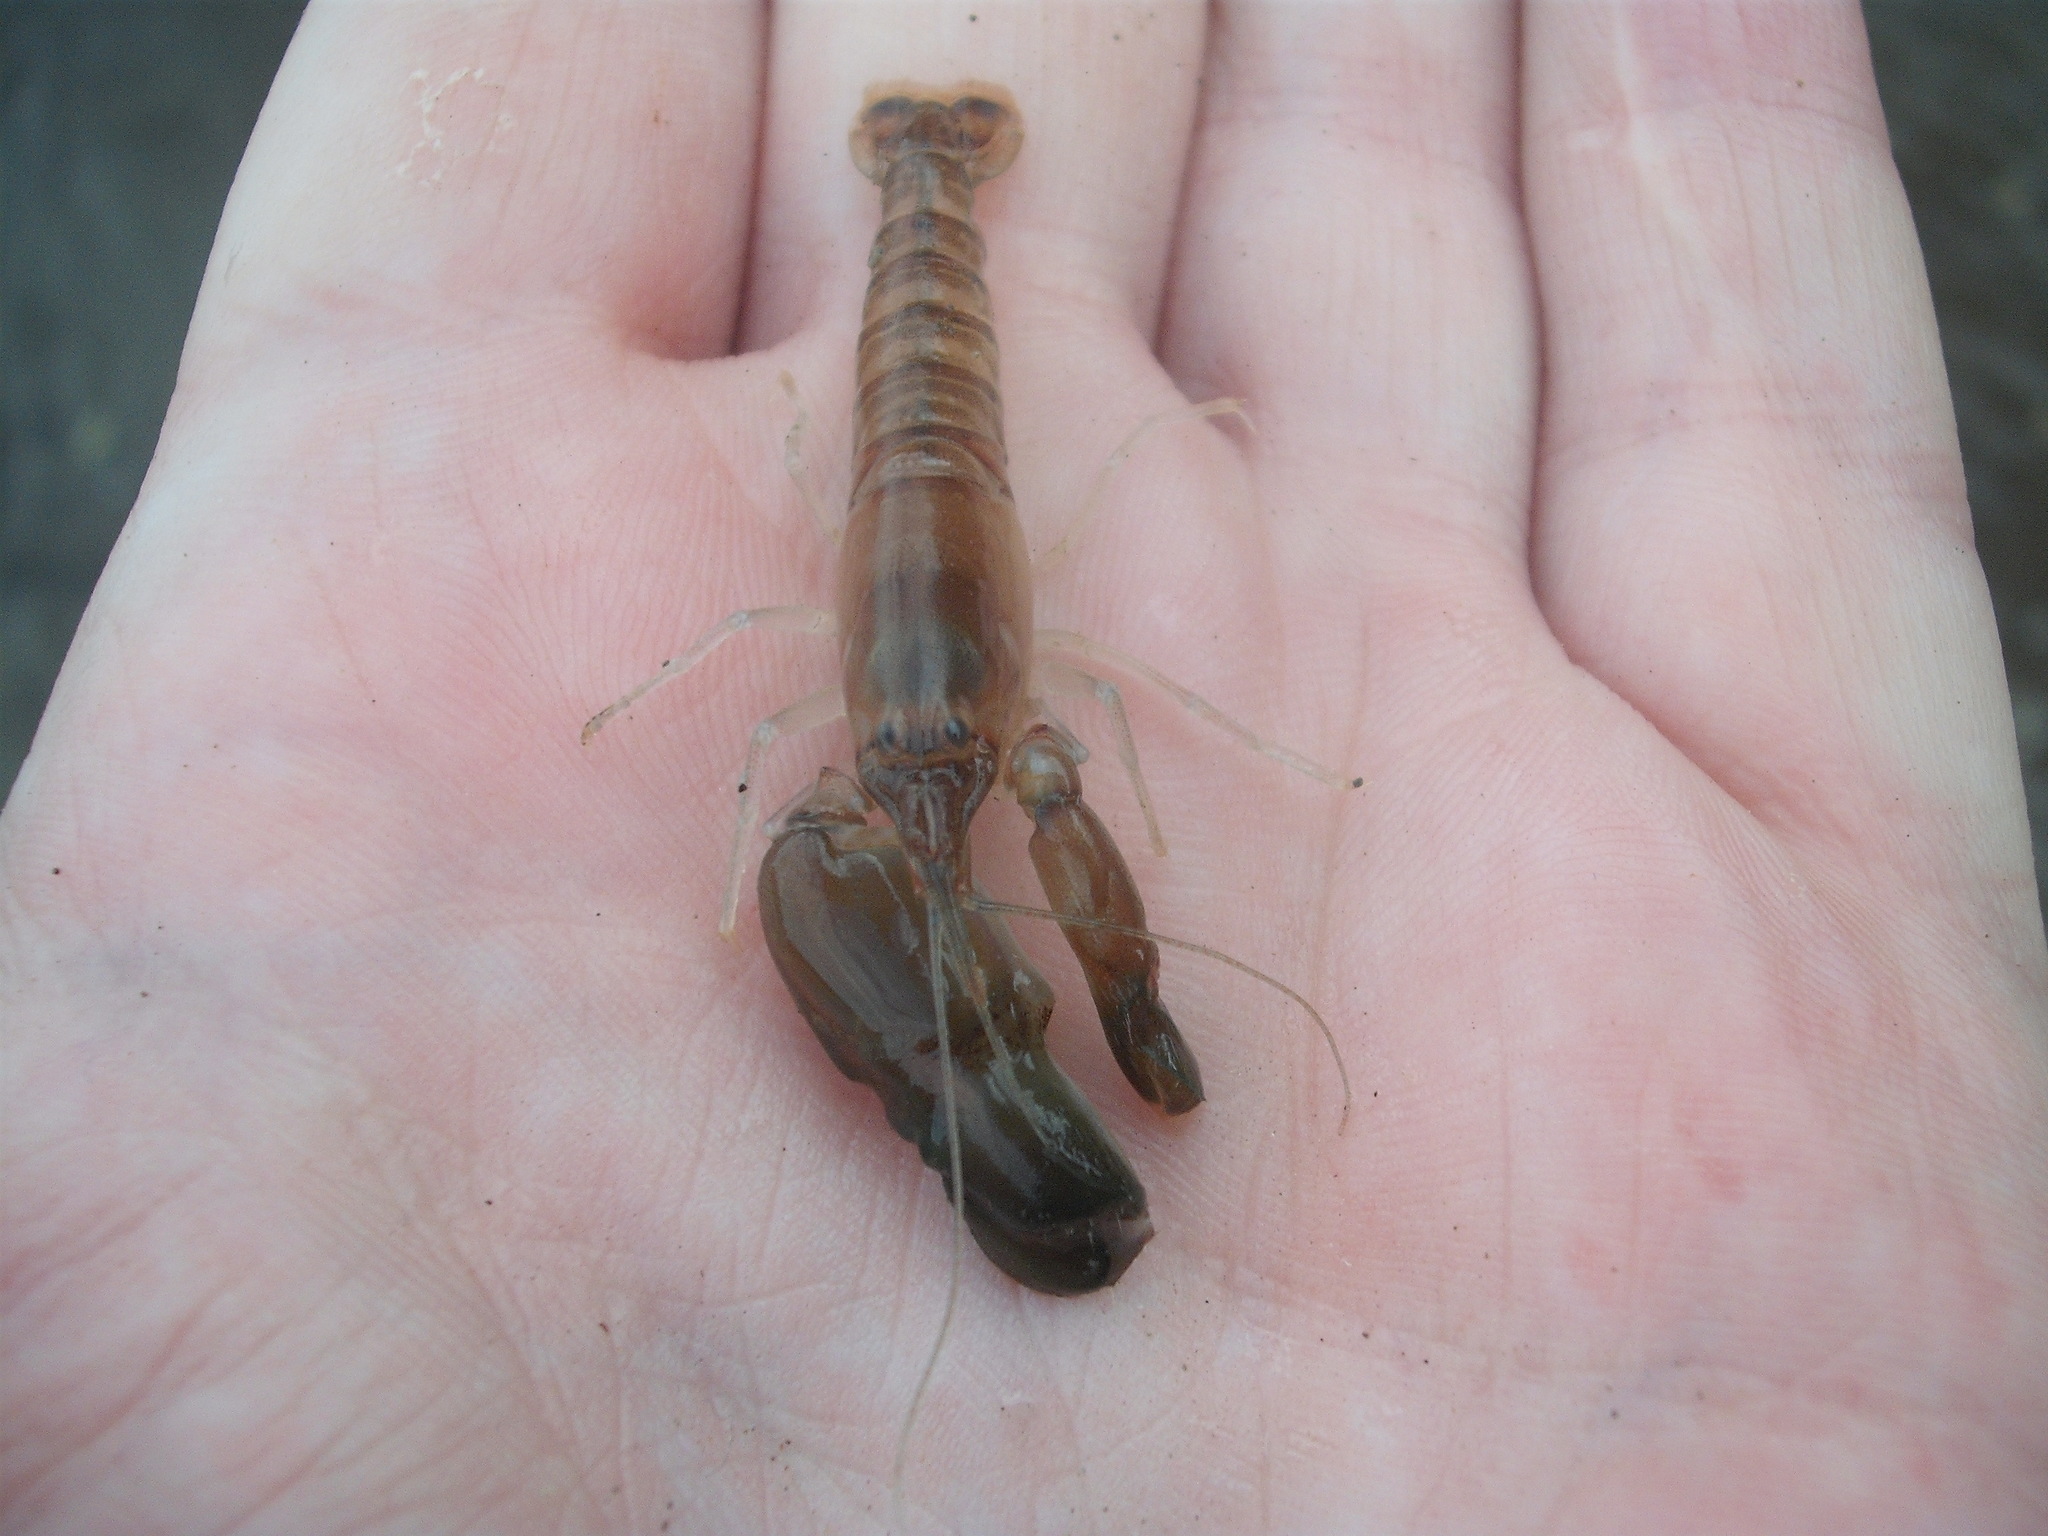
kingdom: Animalia
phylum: Arthropoda
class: Malacostraca
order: Decapoda
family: Alpheidae
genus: Alpheus
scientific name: Alpheus richardsoni
